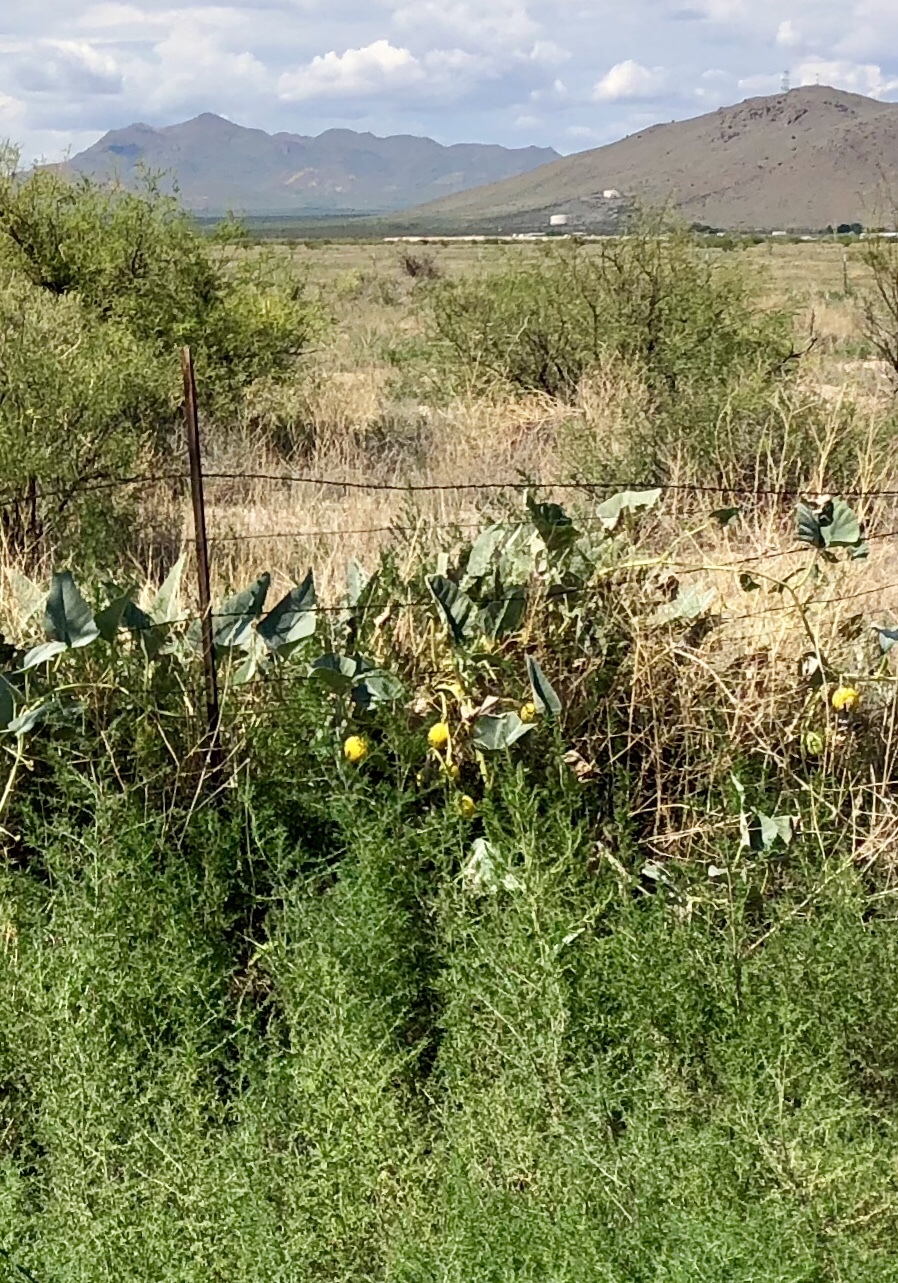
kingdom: Plantae
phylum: Tracheophyta
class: Magnoliopsida
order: Cucurbitales
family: Cucurbitaceae
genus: Cucurbita
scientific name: Cucurbita foetidissima
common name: Buffalo gourd
